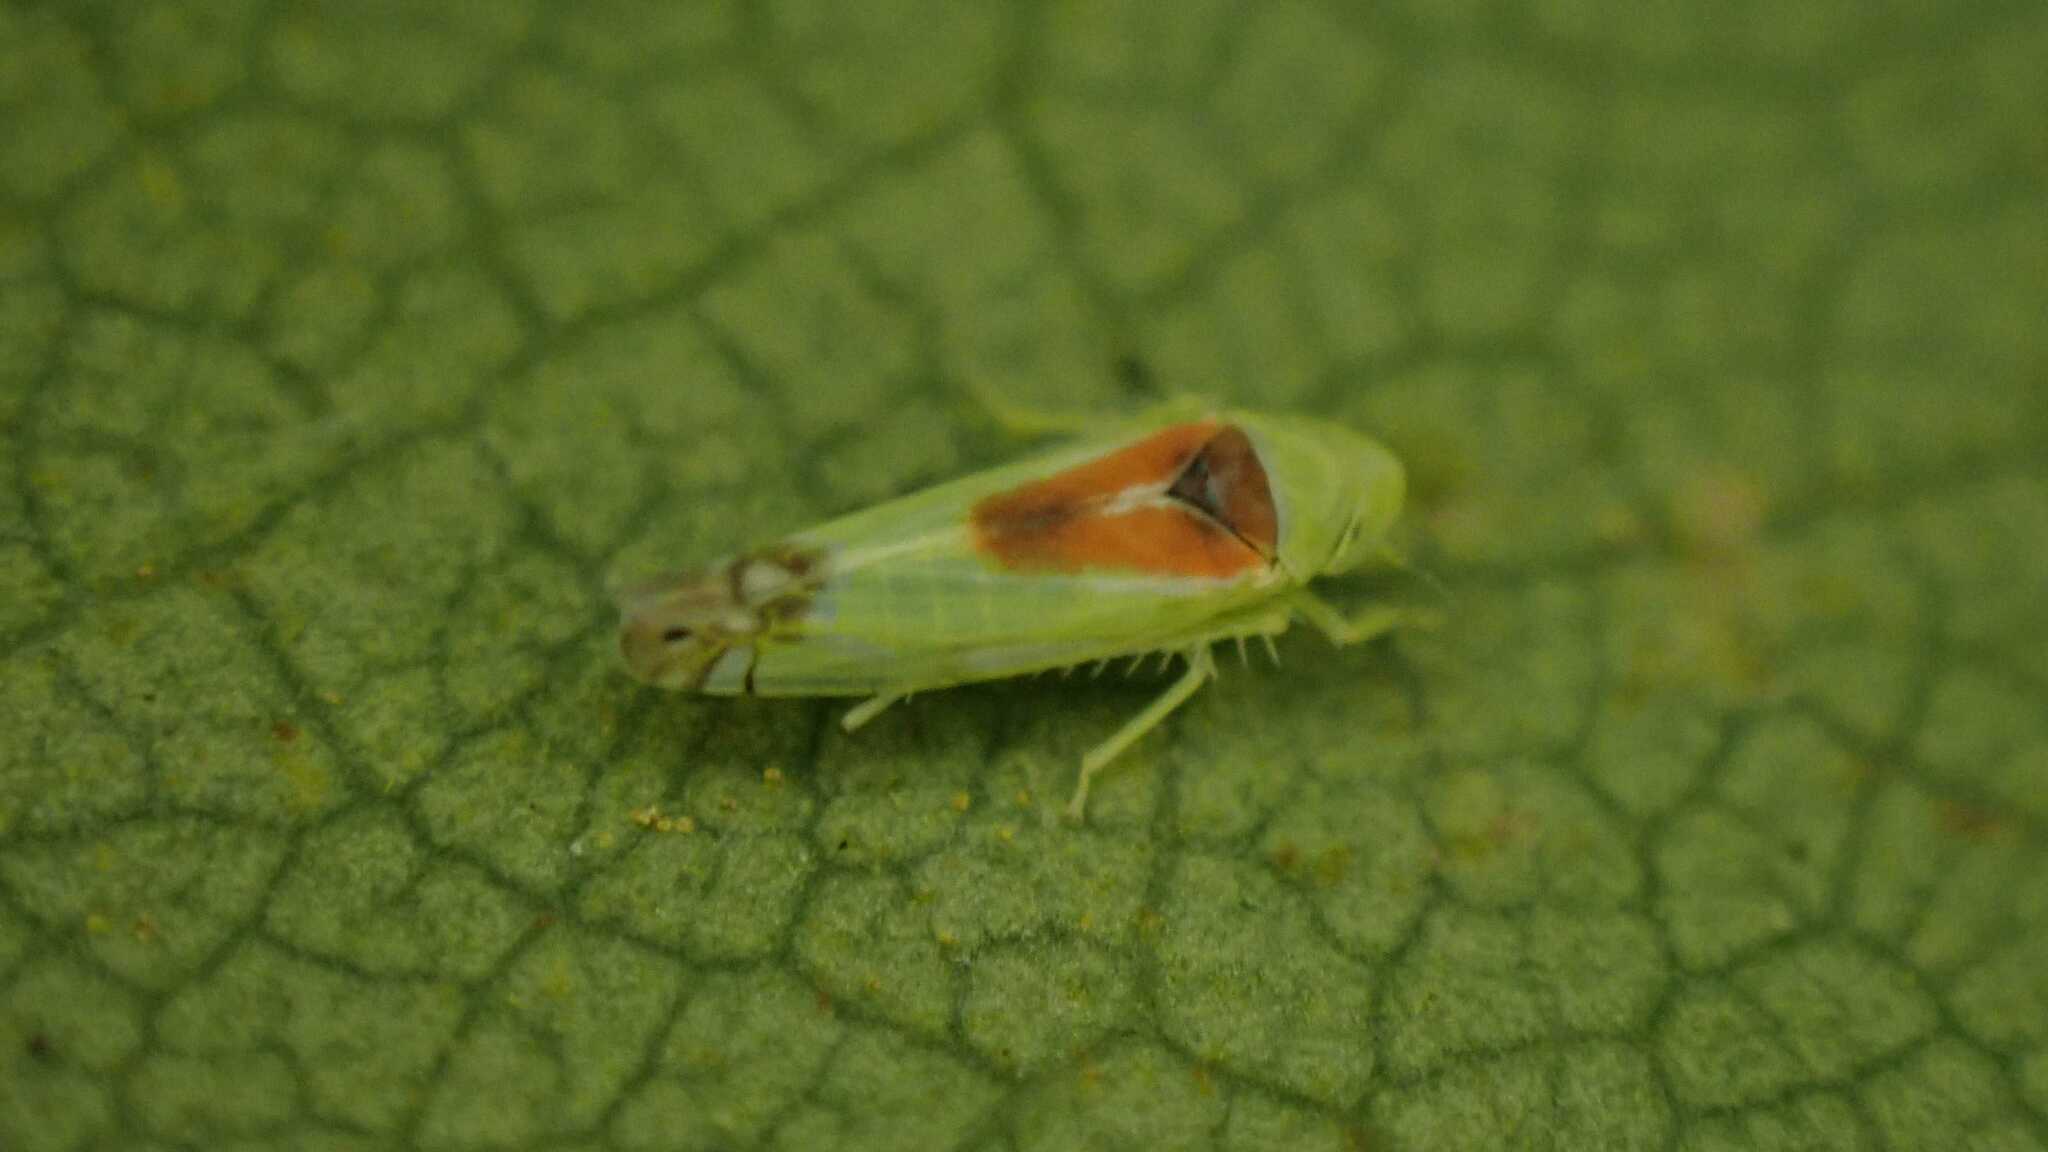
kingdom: Animalia
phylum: Arthropoda
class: Insecta
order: Hemiptera
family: Cicadellidae
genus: Zyginella
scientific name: Zyginella pulchra
